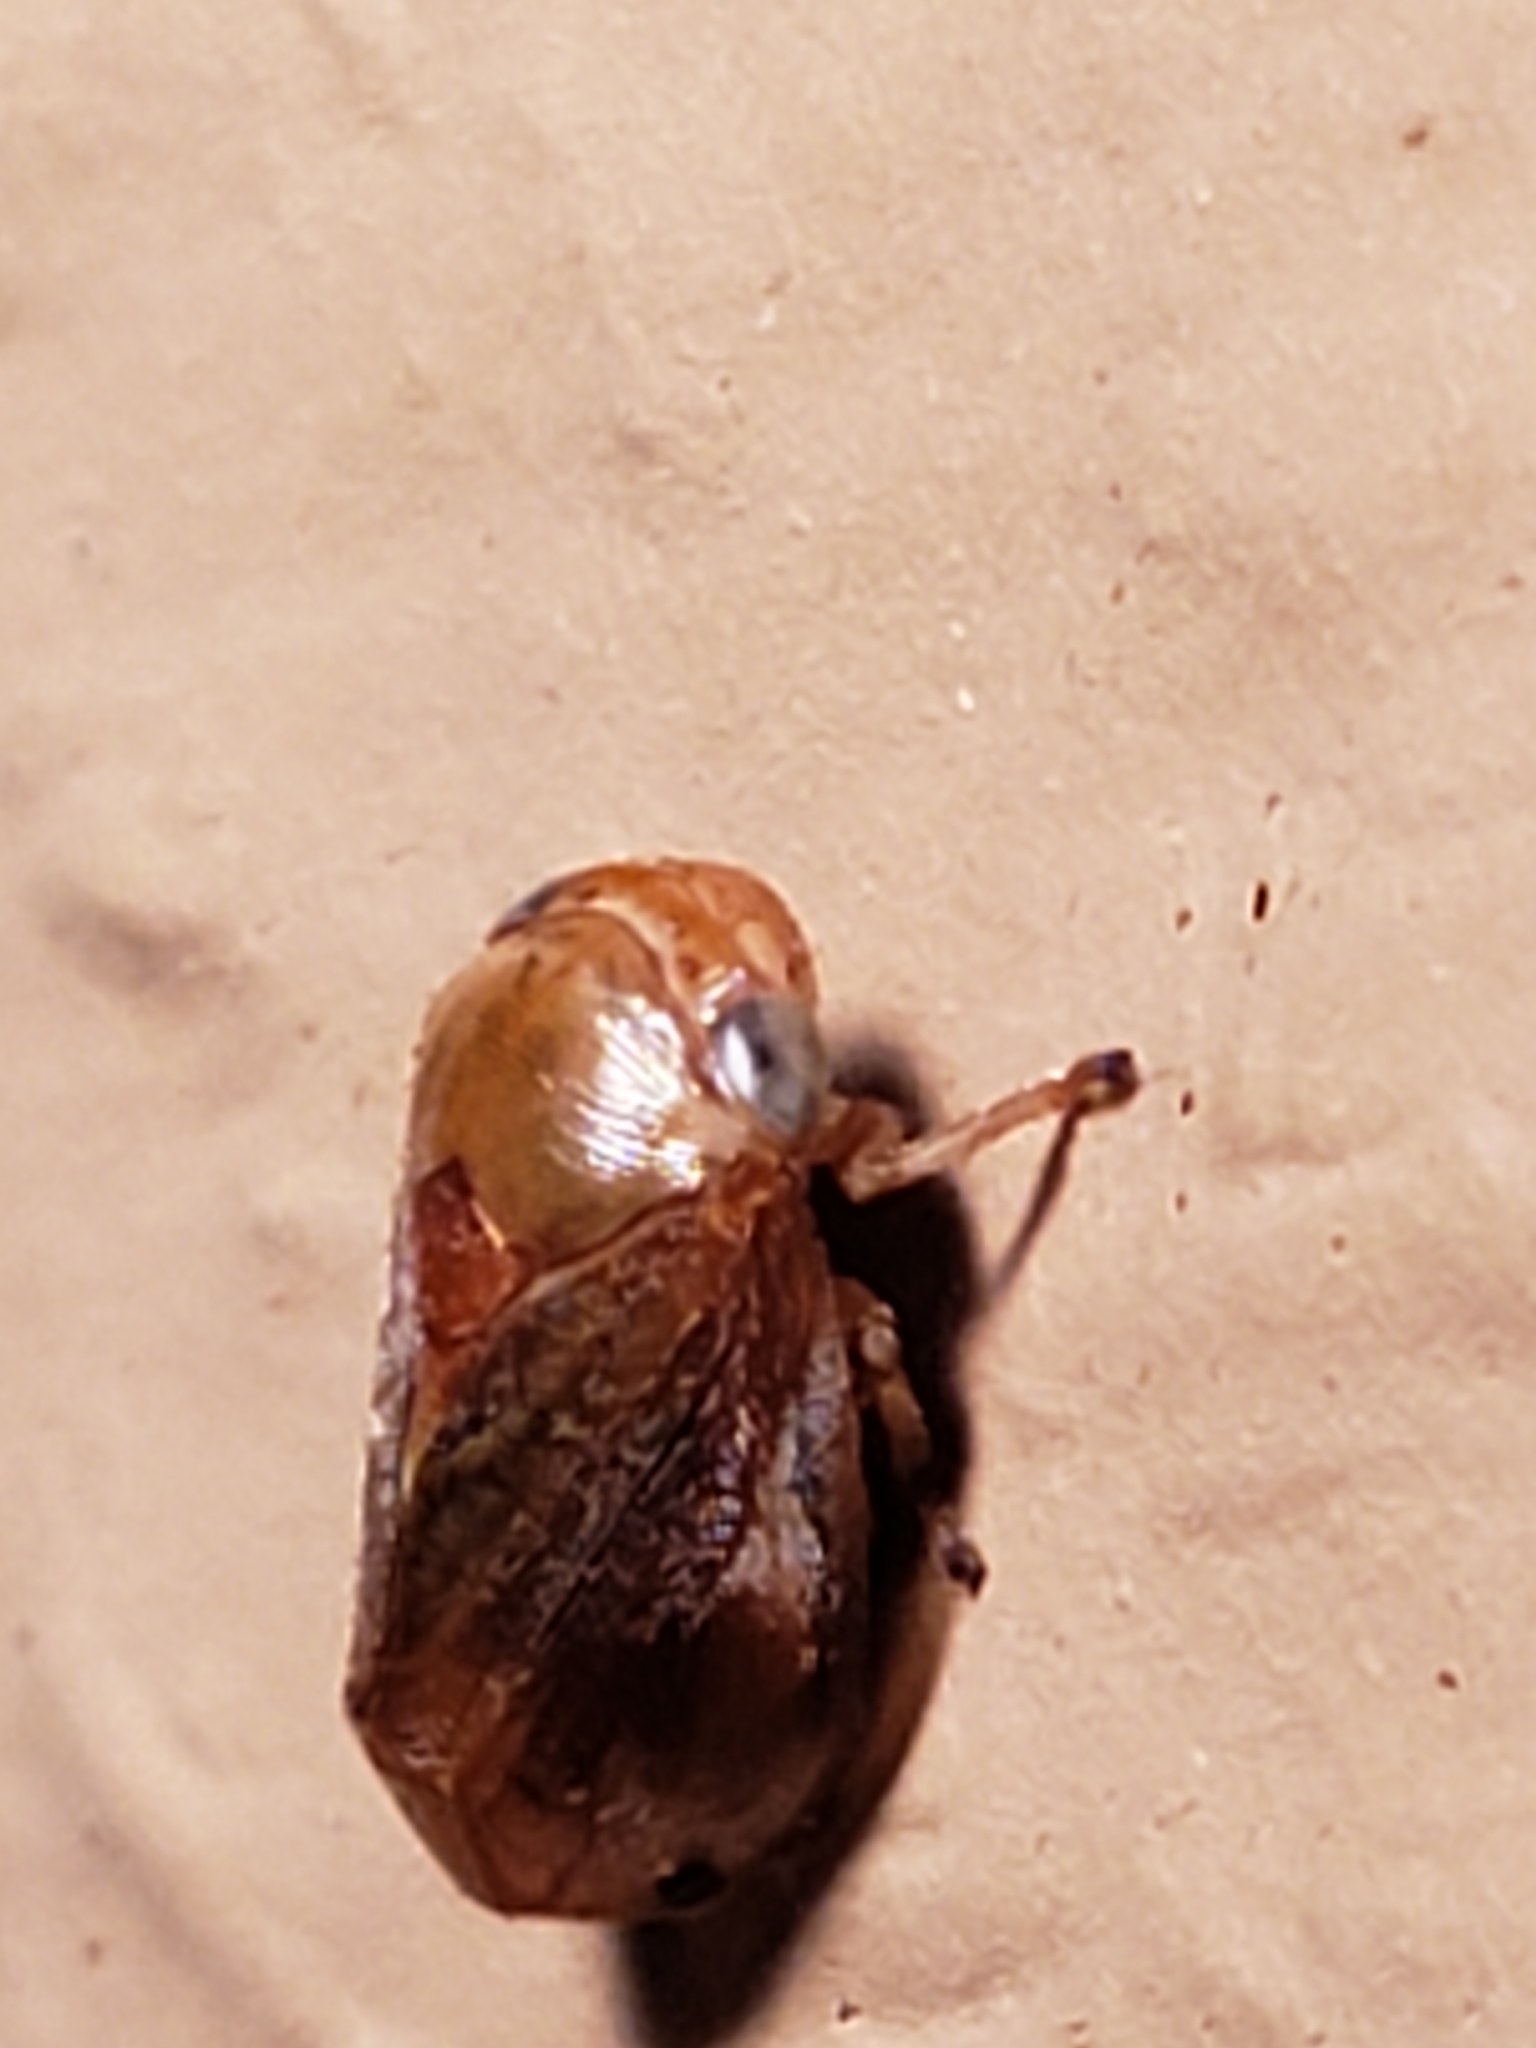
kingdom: Animalia
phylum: Arthropoda
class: Insecta
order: Hemiptera
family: Clastopteridae
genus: Clastoptera
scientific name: Clastoptera testacea
